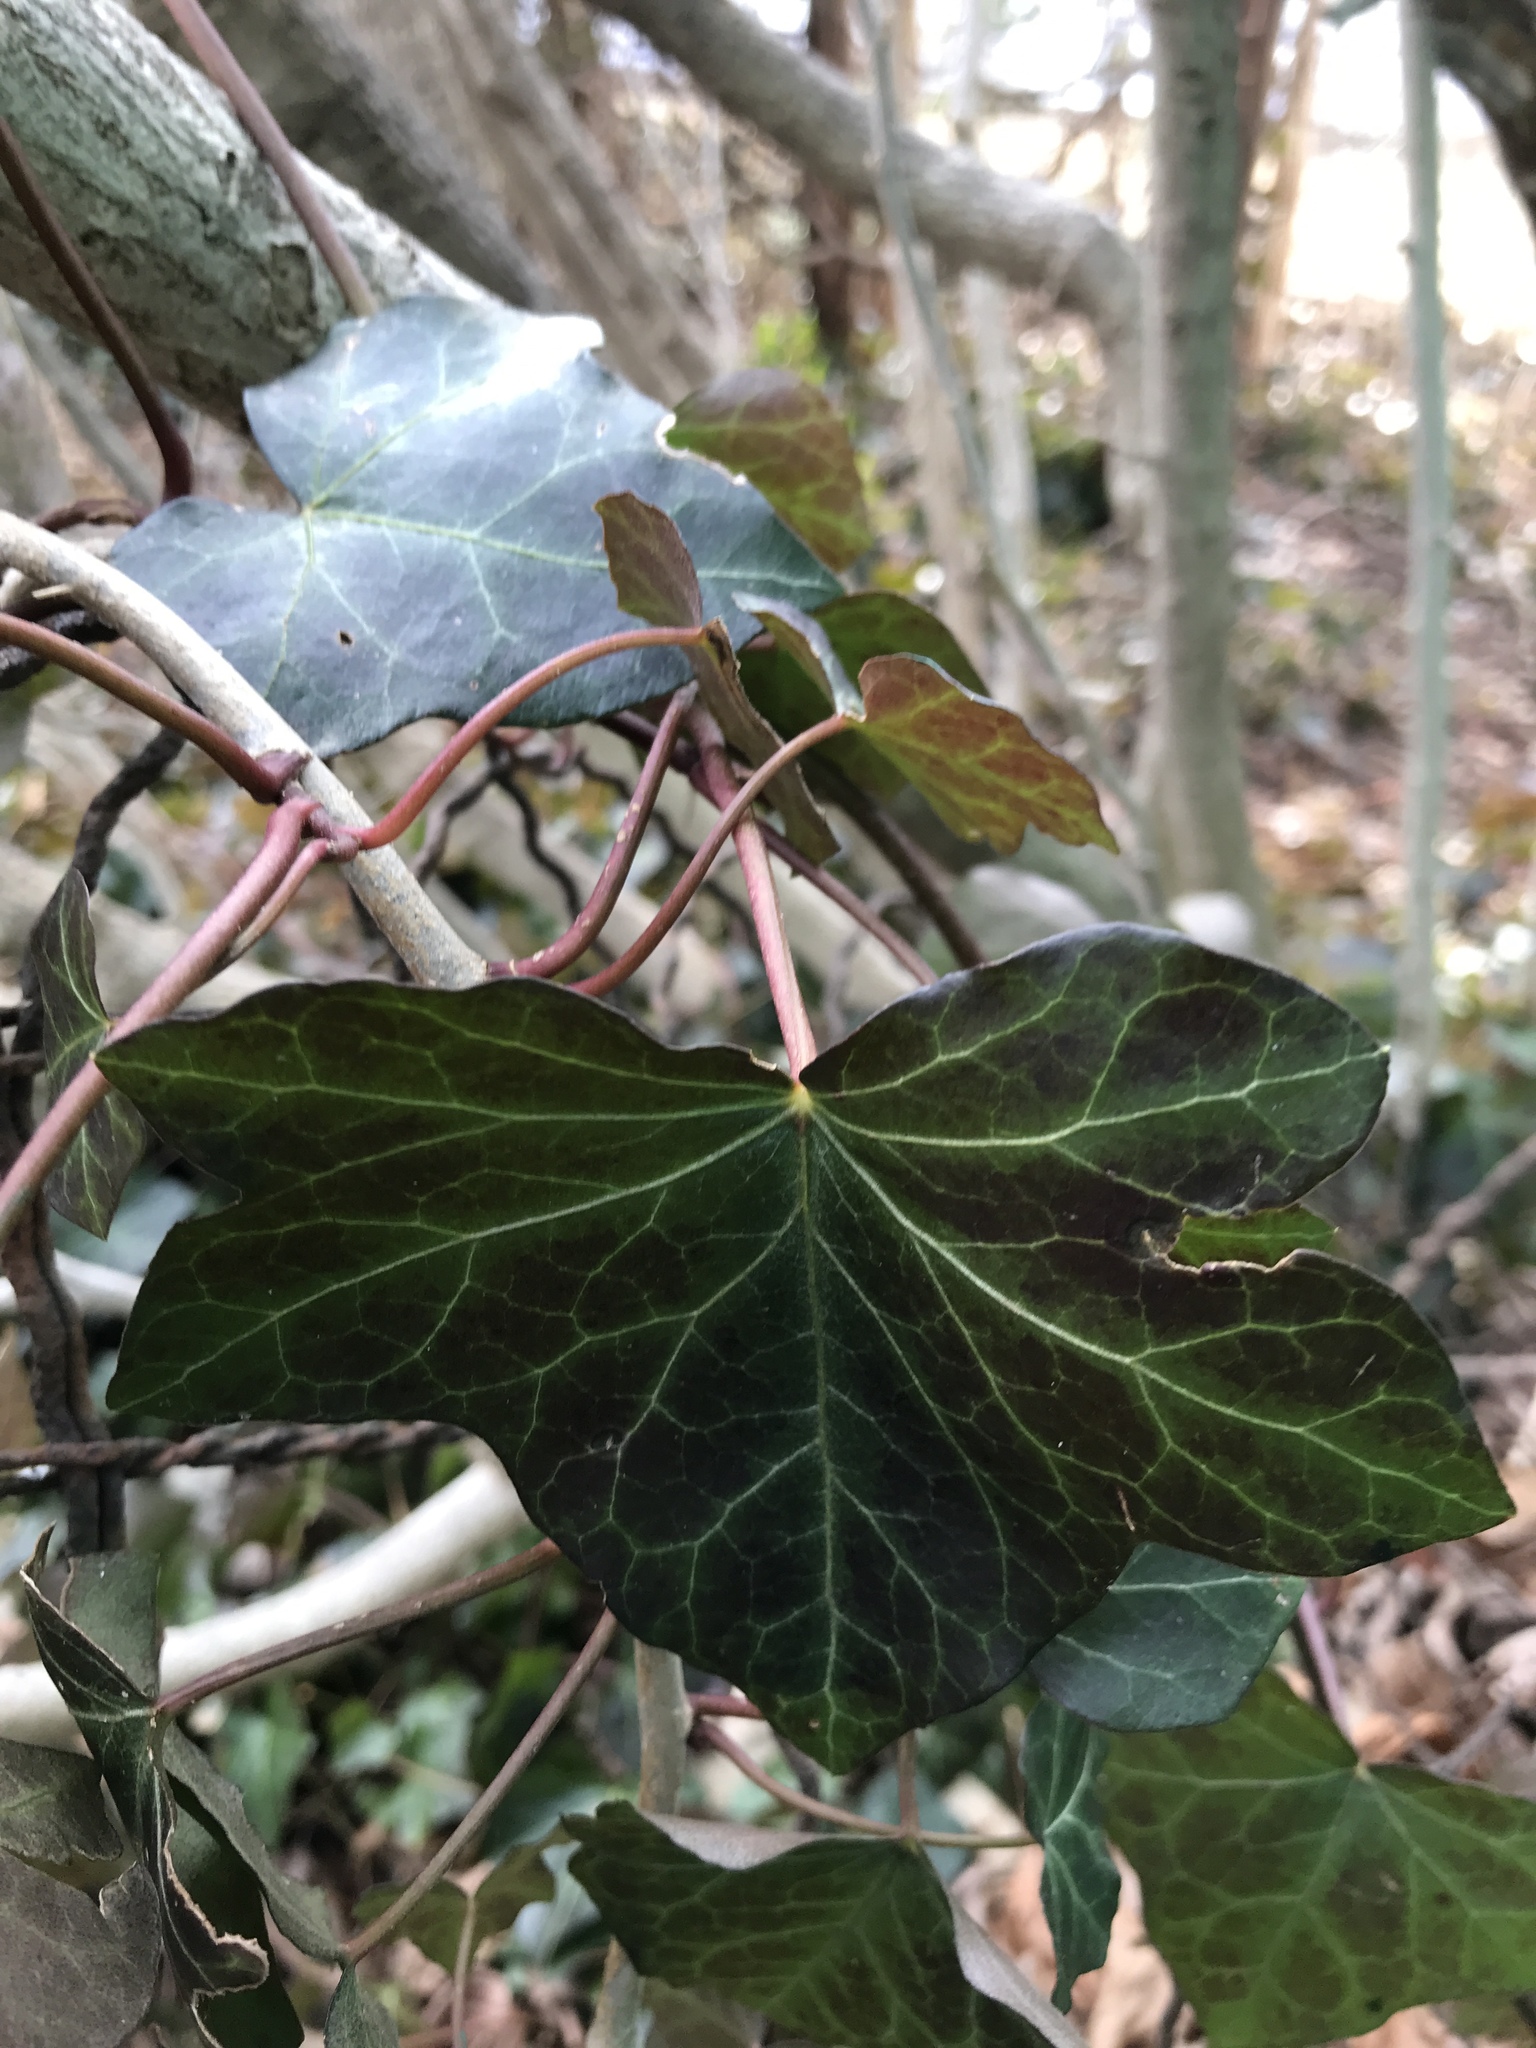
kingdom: Plantae
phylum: Tracheophyta
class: Magnoliopsida
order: Apiales
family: Araliaceae
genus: Hedera
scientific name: Hedera helix
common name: Ivy
